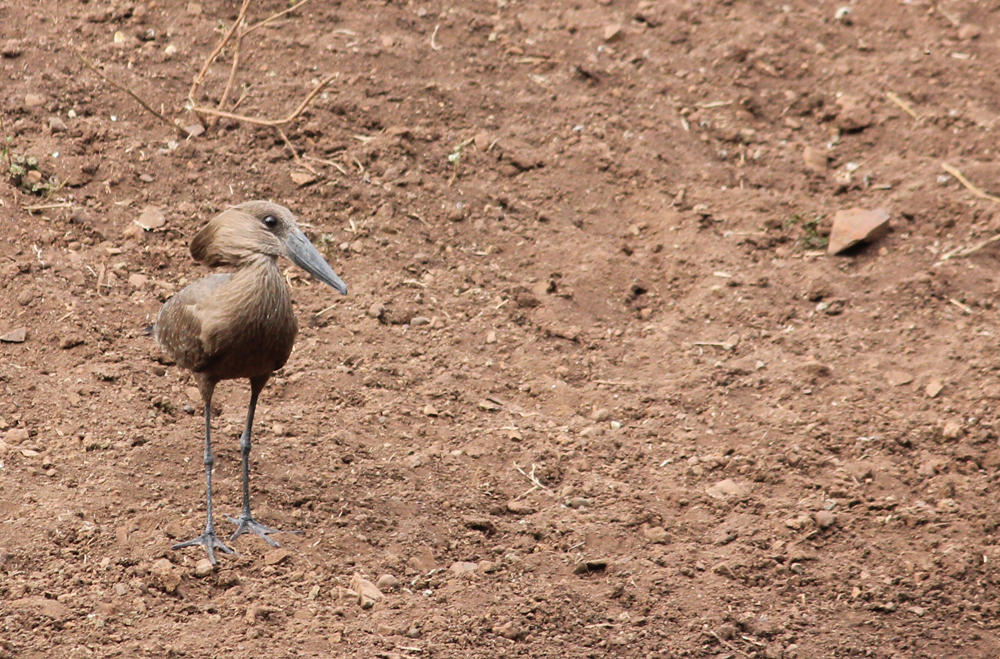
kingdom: Animalia
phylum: Chordata
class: Aves
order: Pelecaniformes
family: Scopidae
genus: Scopus
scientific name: Scopus umbretta
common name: Hamerkop
